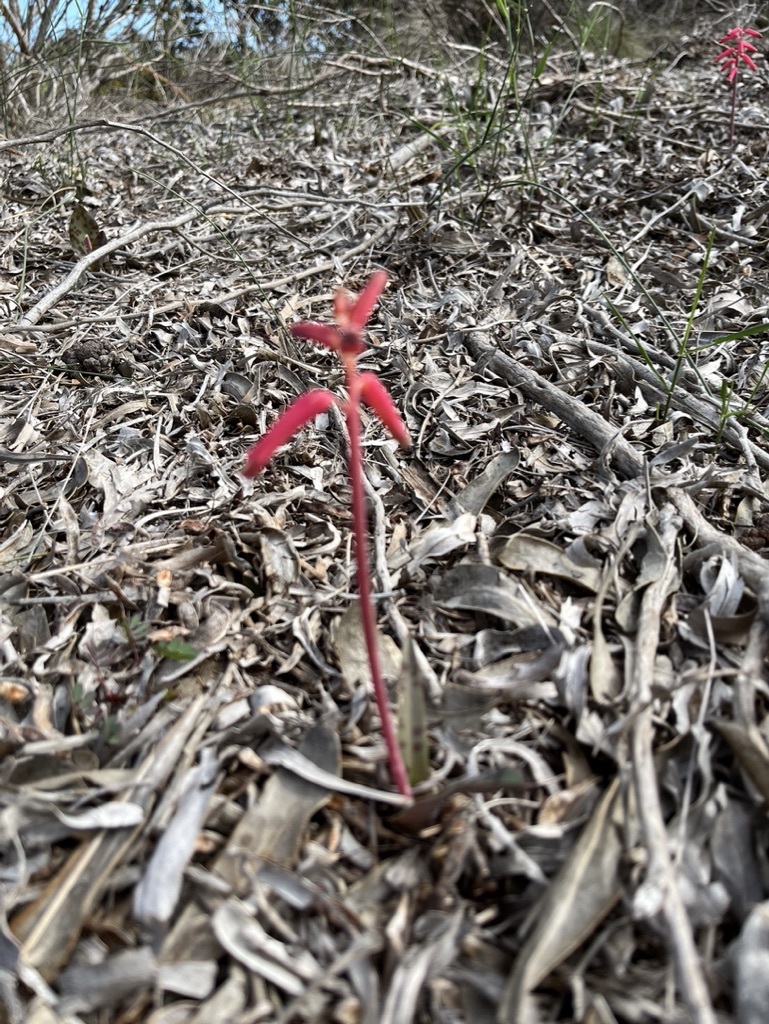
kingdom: Plantae
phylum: Tracheophyta
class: Liliopsida
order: Asparagales
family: Asparagaceae
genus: Lachenalia
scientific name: Lachenalia punctata
